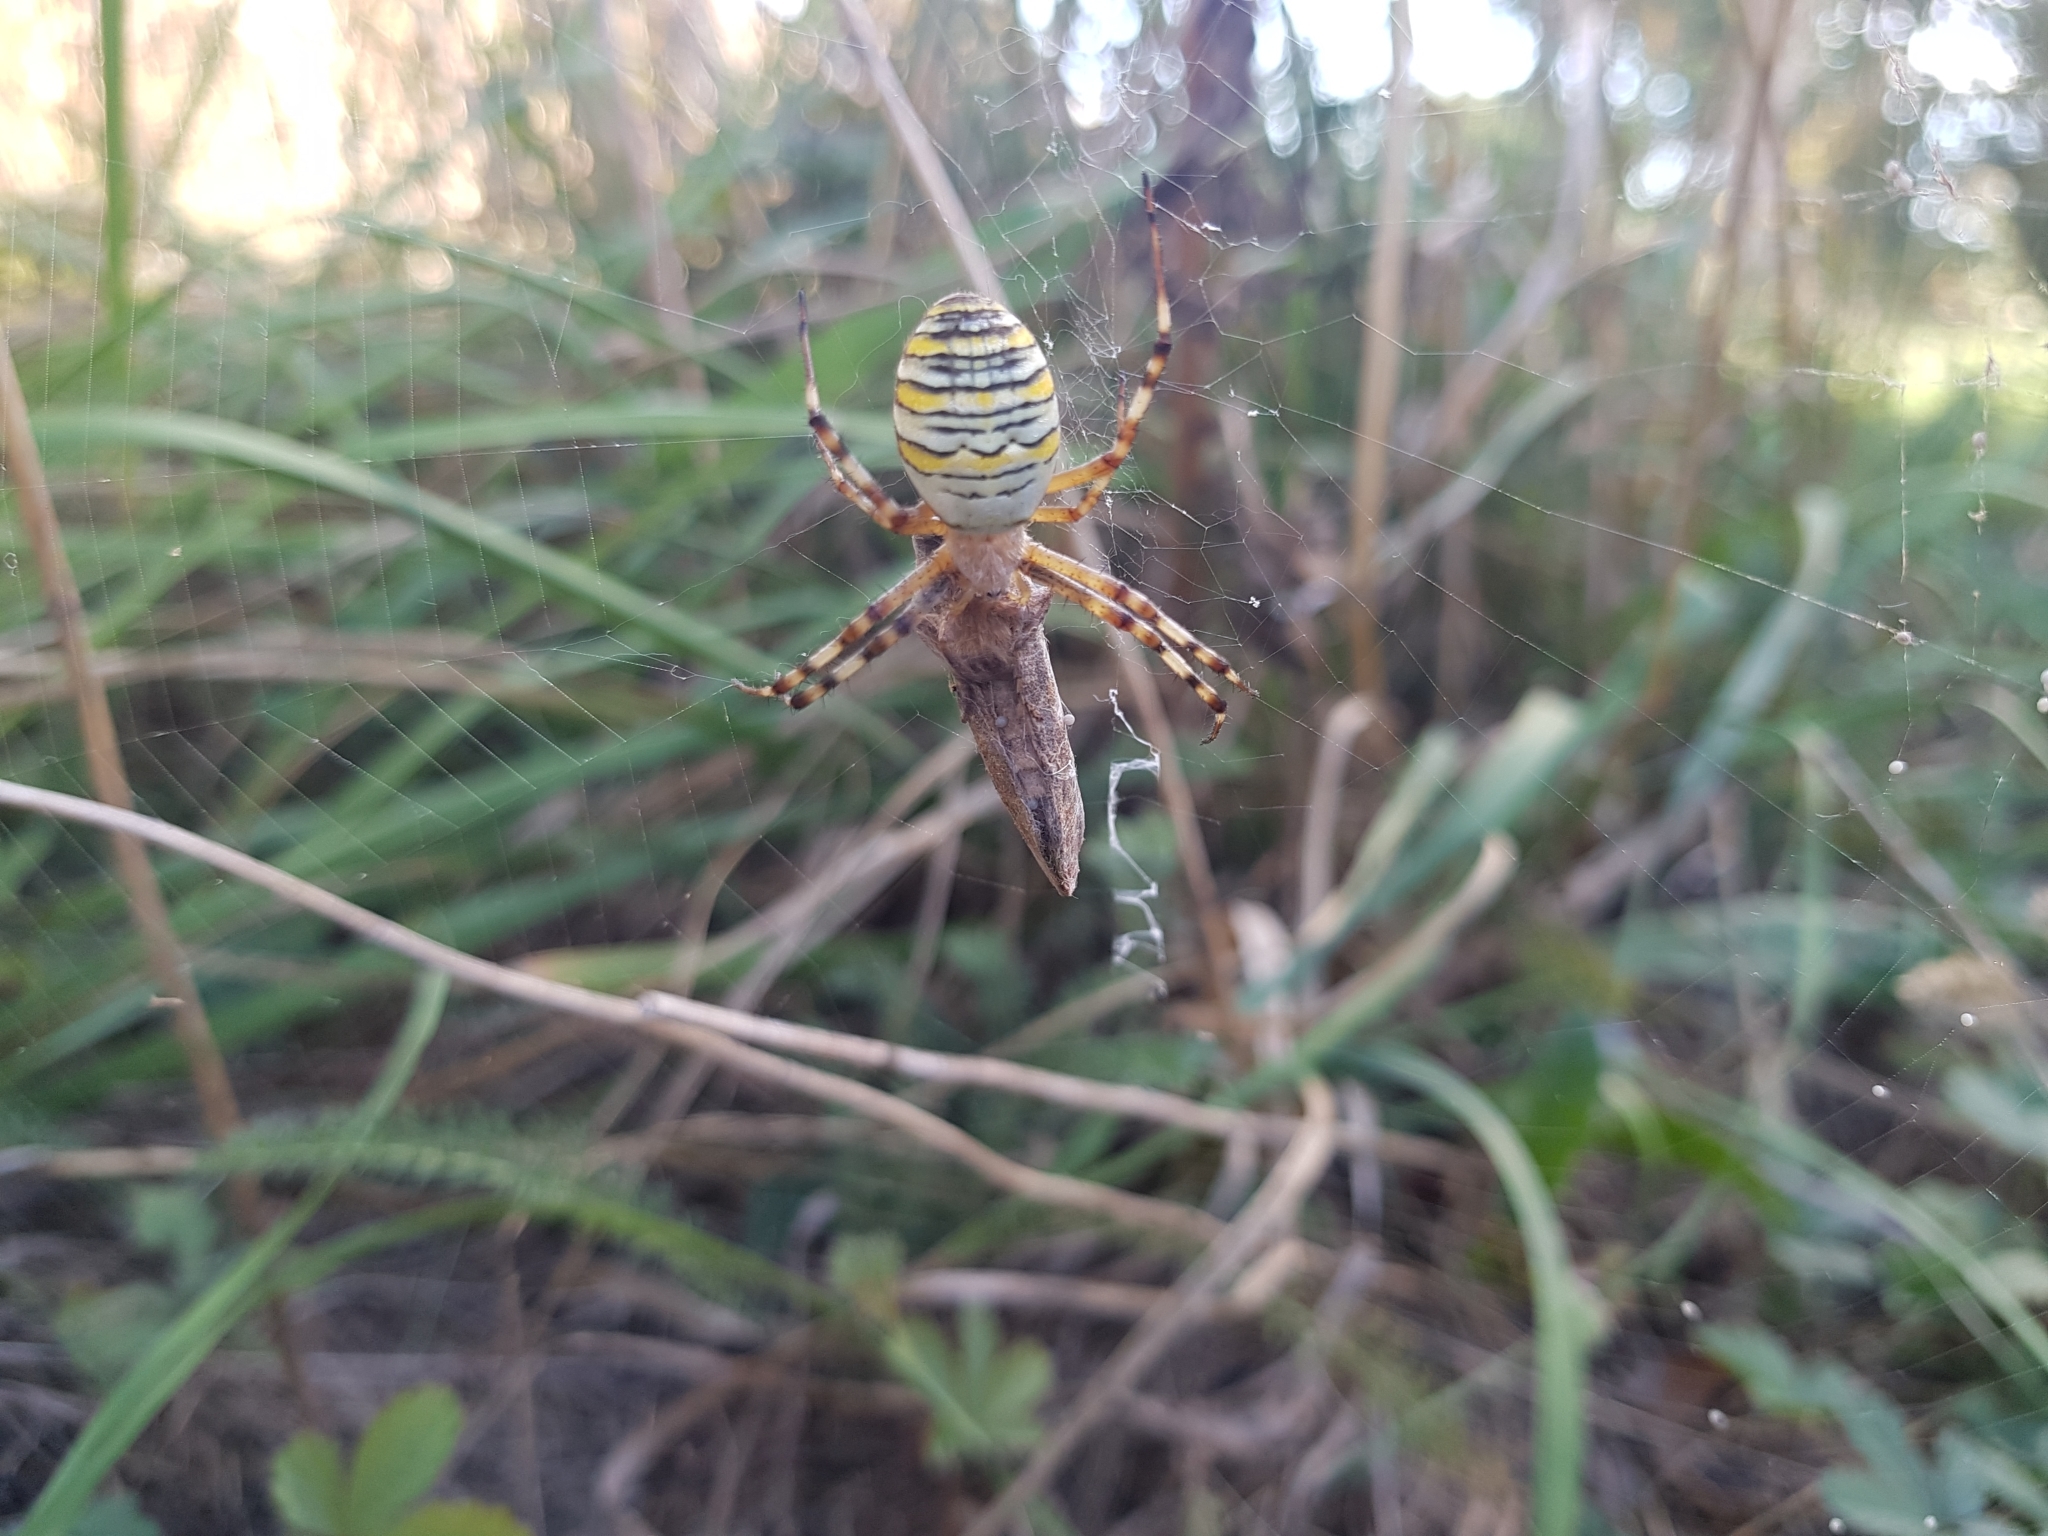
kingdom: Animalia
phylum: Arthropoda
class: Arachnida
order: Araneae
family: Araneidae
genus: Argiope
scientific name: Argiope bruennichi
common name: Wasp spider
